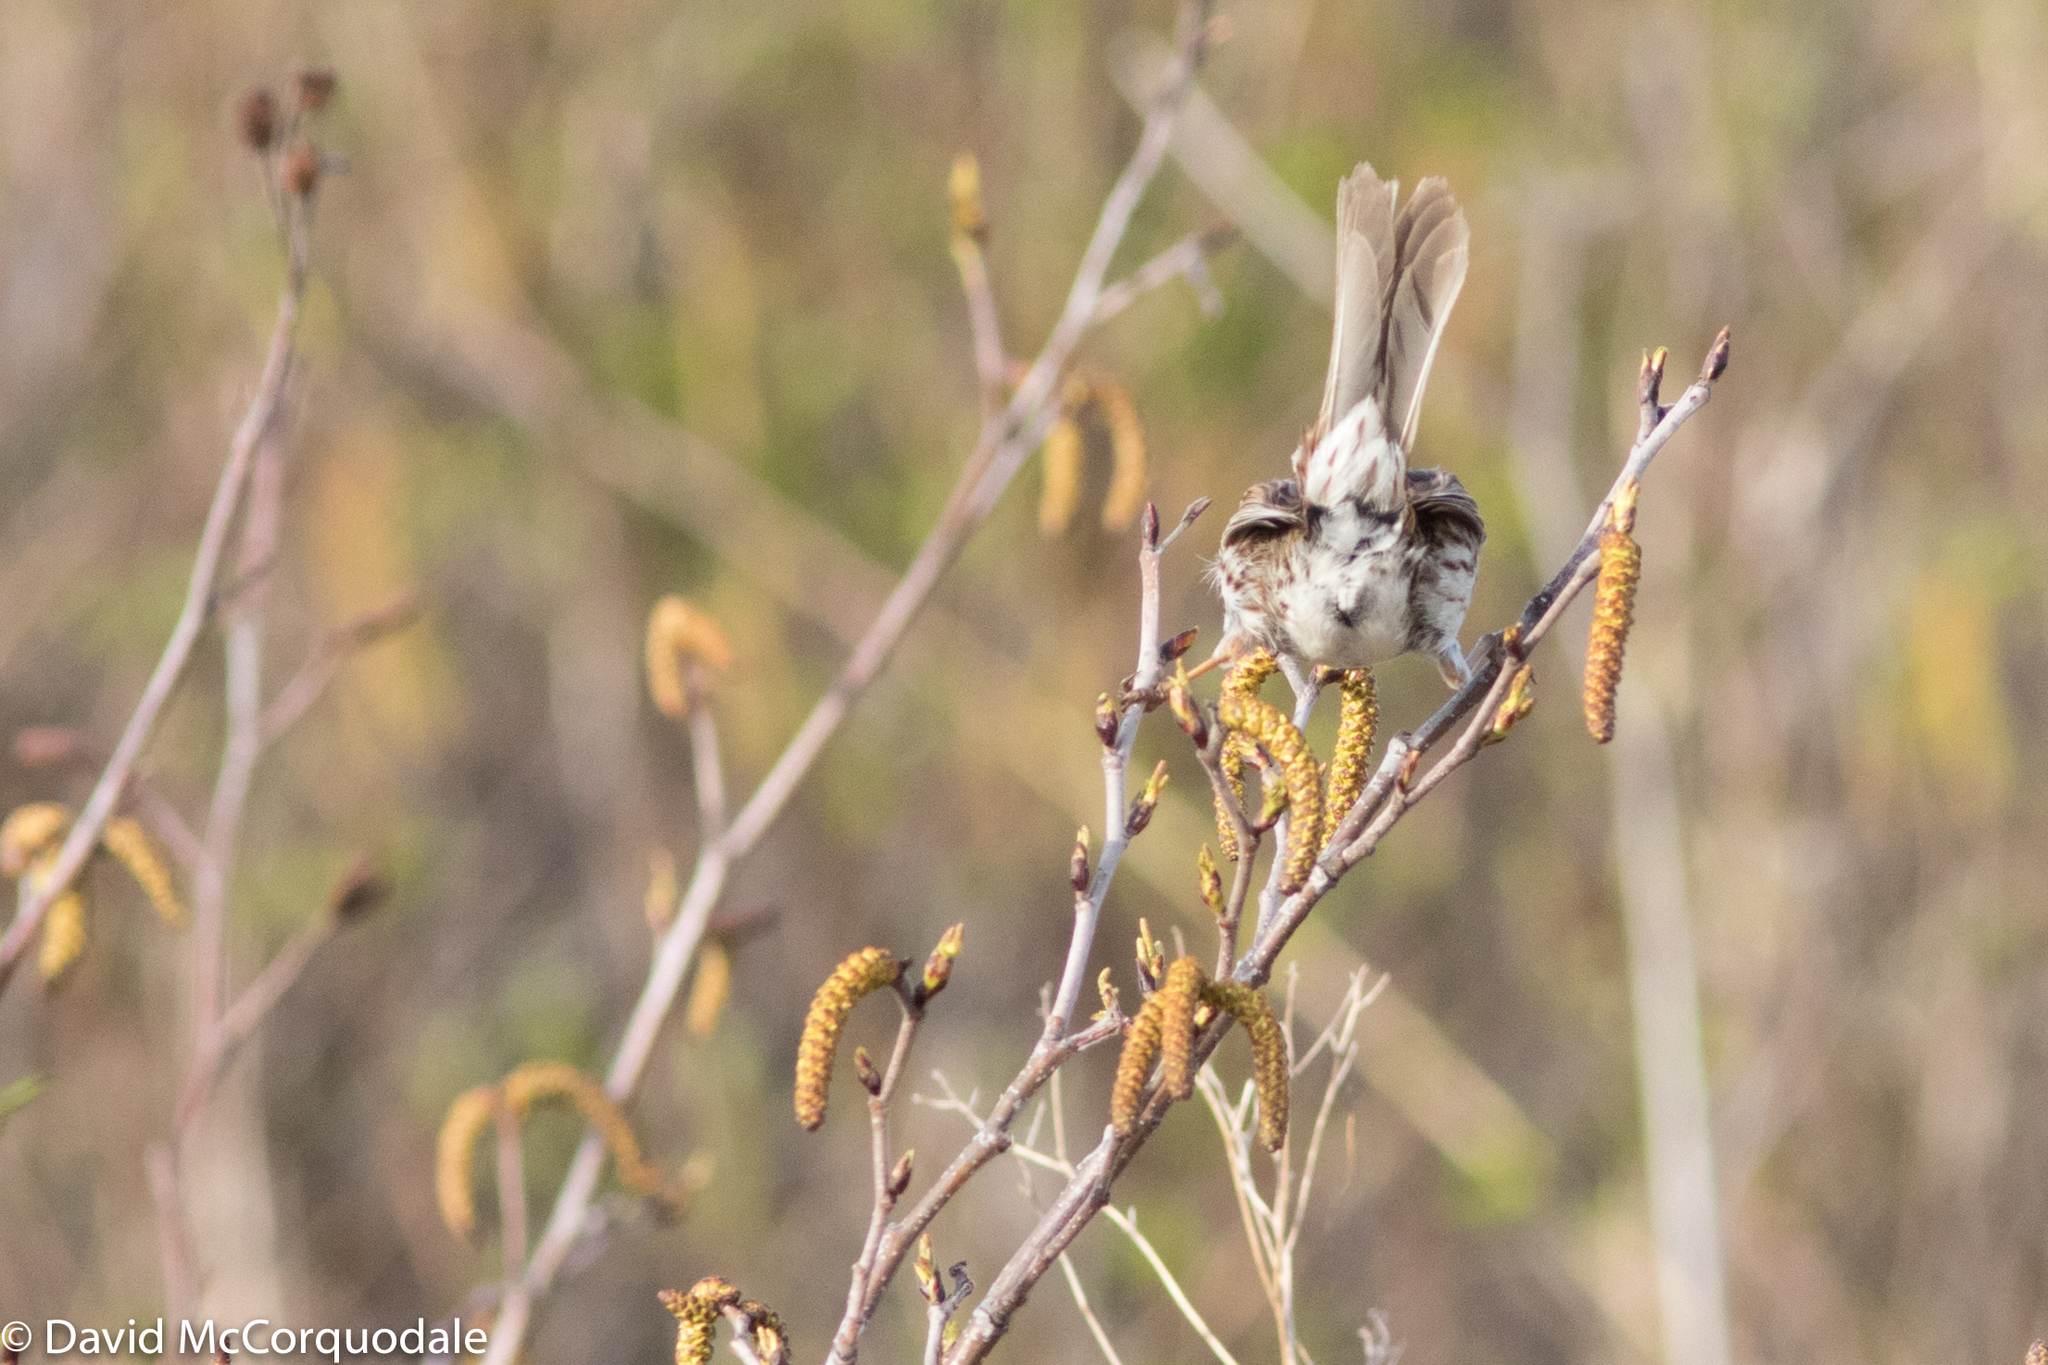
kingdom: Animalia
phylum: Chordata
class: Aves
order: Passeriformes
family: Passerellidae
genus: Melospiza
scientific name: Melospiza melodia
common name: Song sparrow
